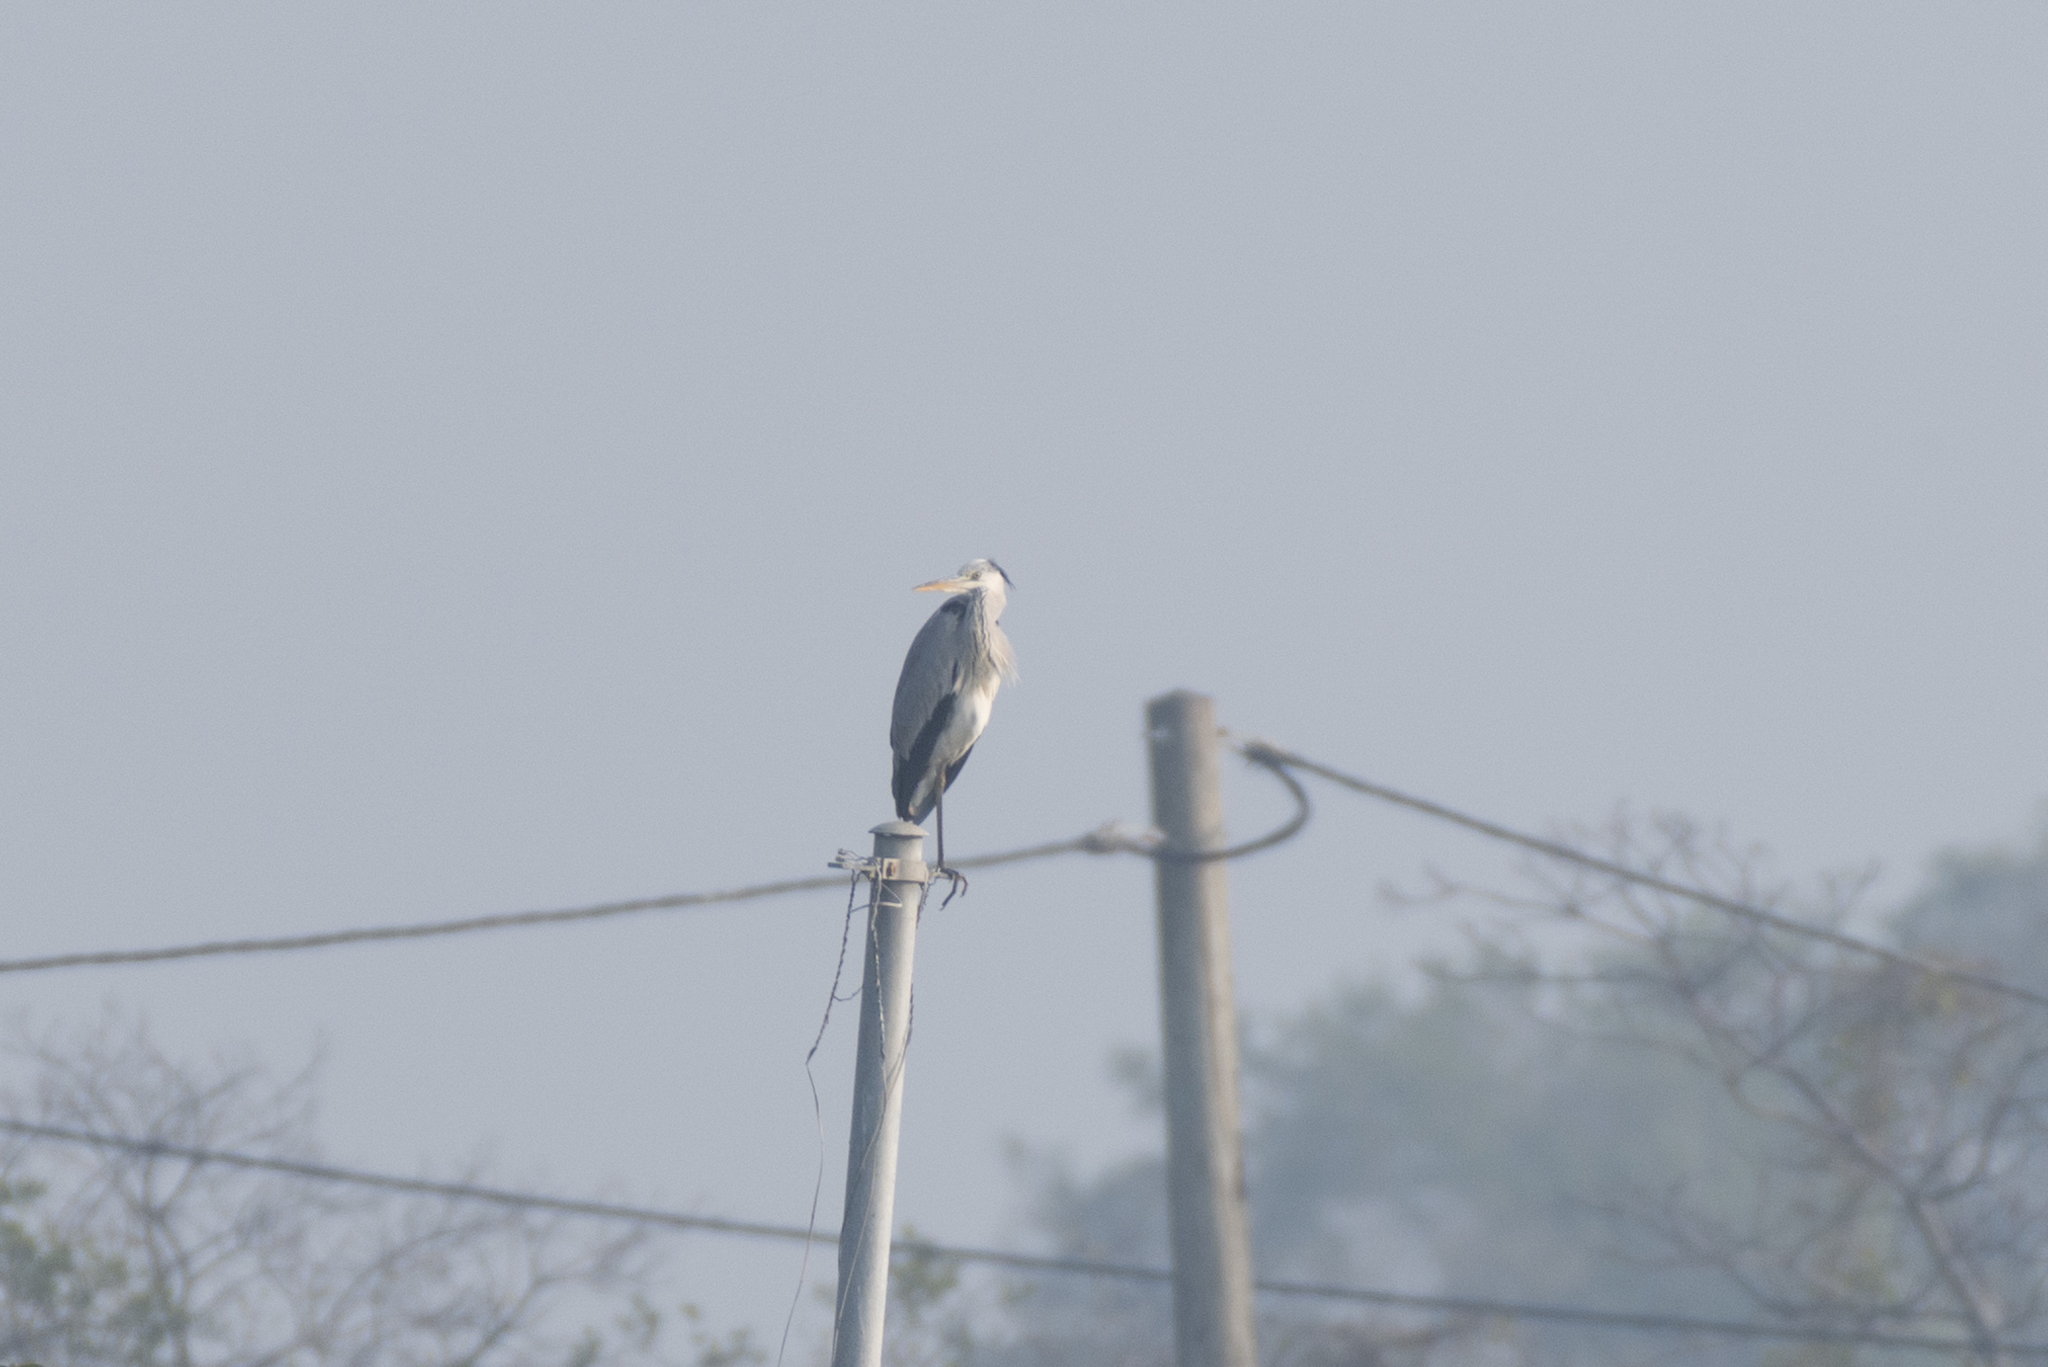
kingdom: Animalia
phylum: Chordata
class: Aves
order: Pelecaniformes
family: Ardeidae
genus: Ardea
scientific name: Ardea cinerea
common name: Grey heron
